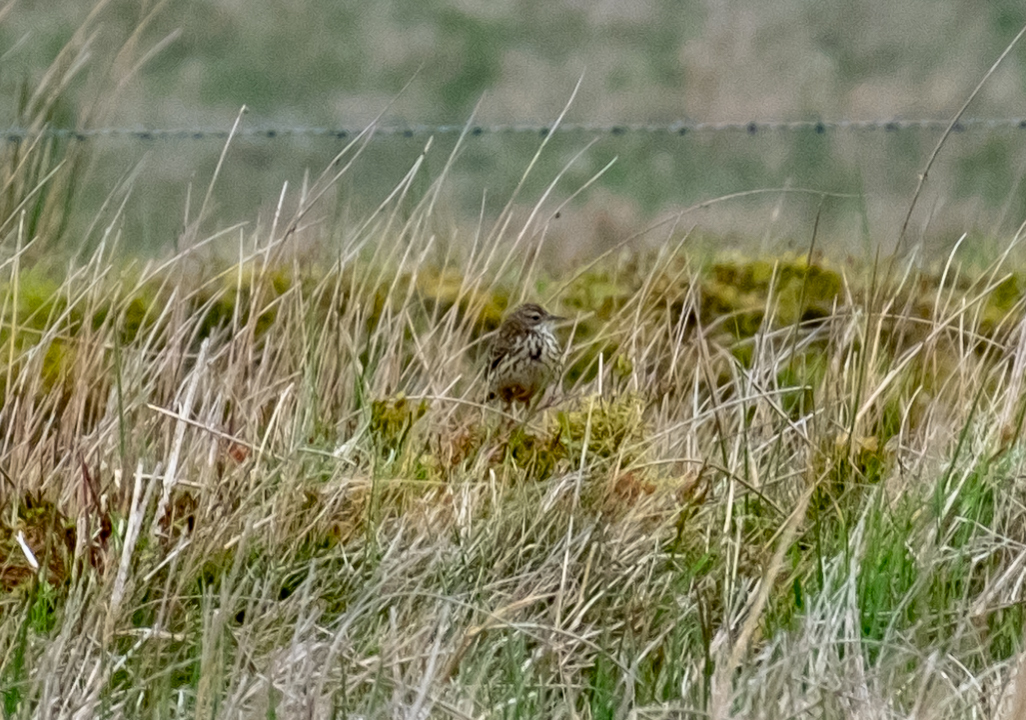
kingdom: Animalia
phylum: Chordata
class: Aves
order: Passeriformes
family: Motacillidae
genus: Anthus
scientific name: Anthus pratensis
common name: Meadow pipit
